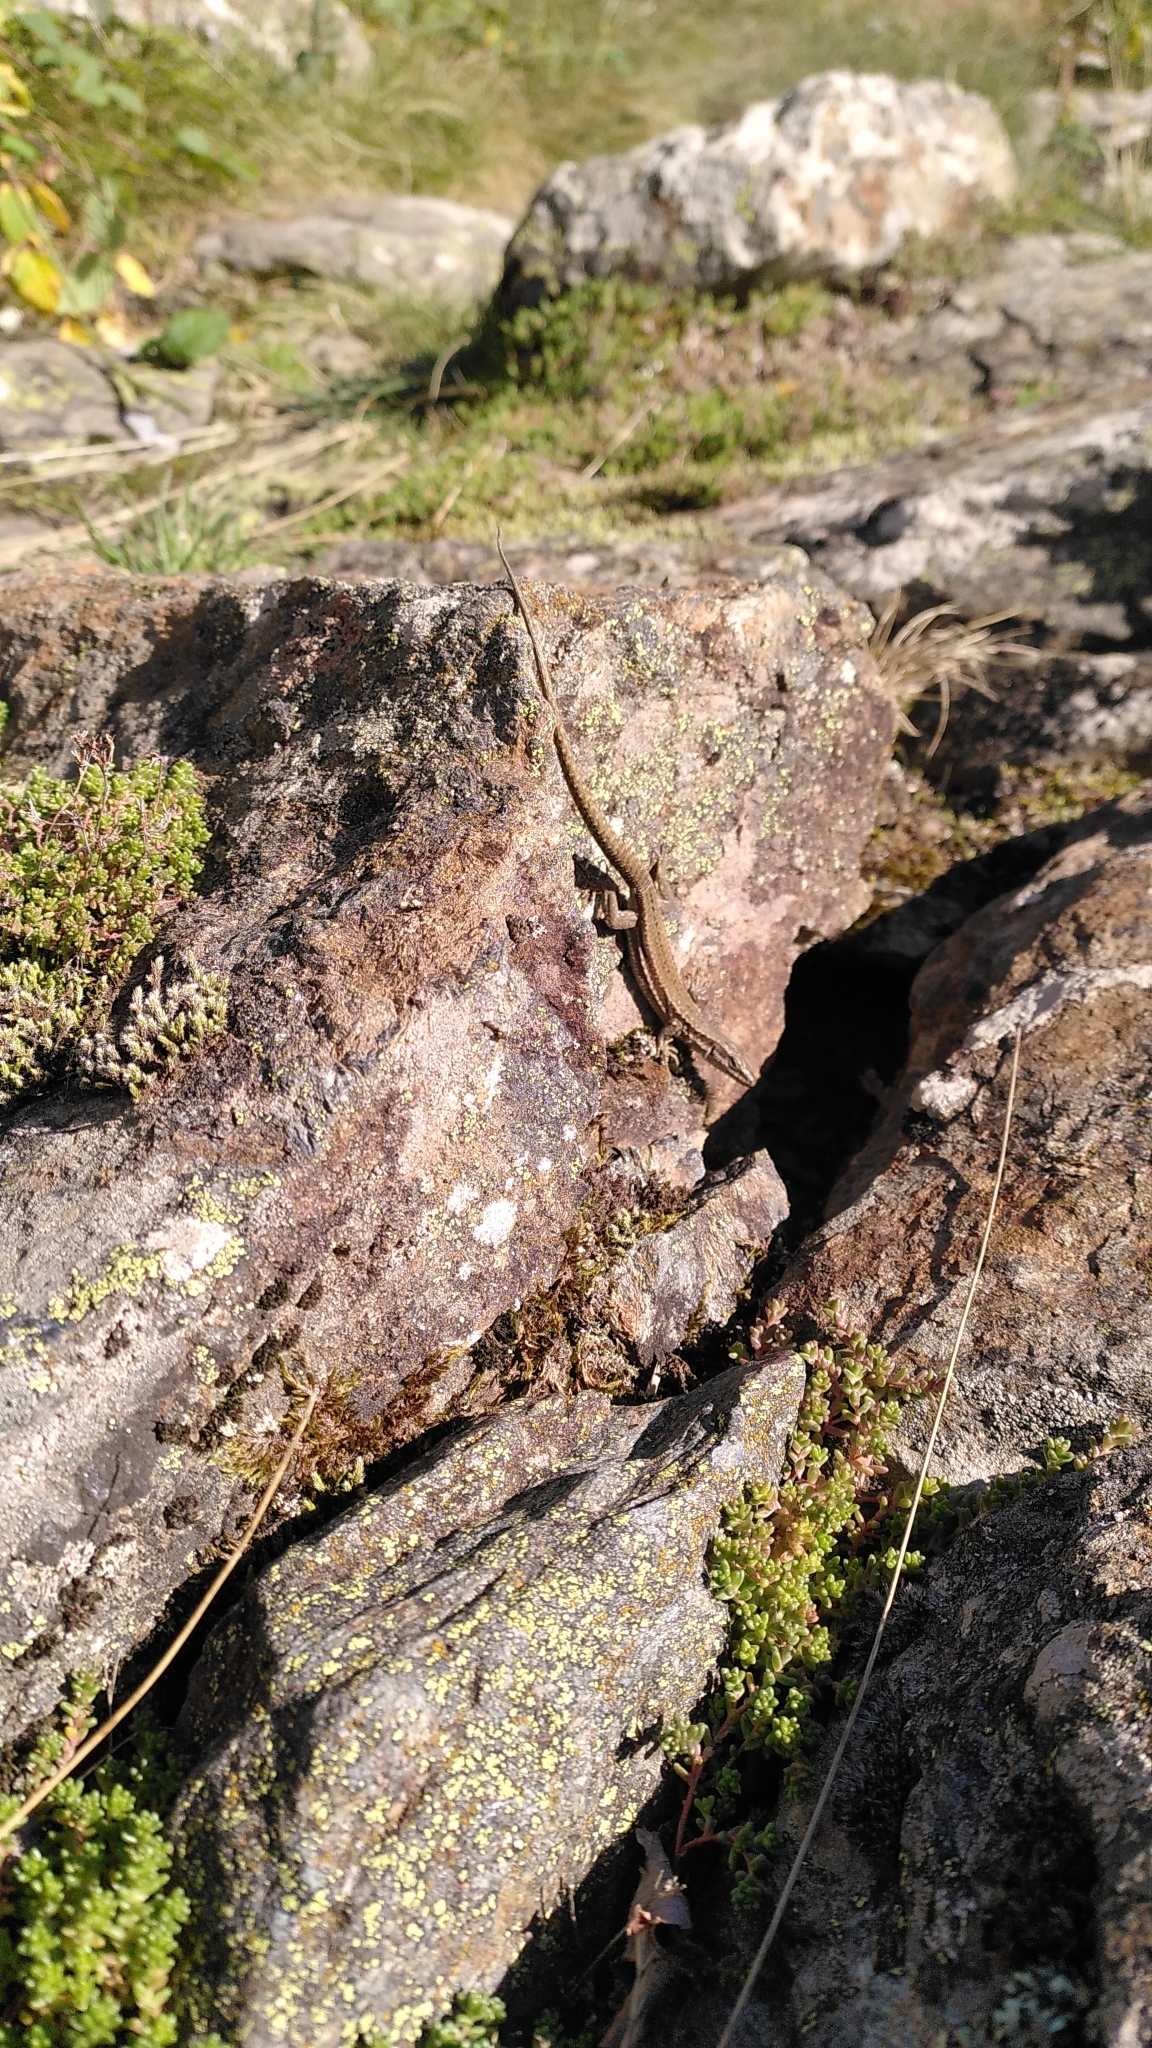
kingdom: Animalia
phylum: Chordata
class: Squamata
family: Lacertidae
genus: Podarcis
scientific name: Podarcis muralis
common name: Common wall lizard
